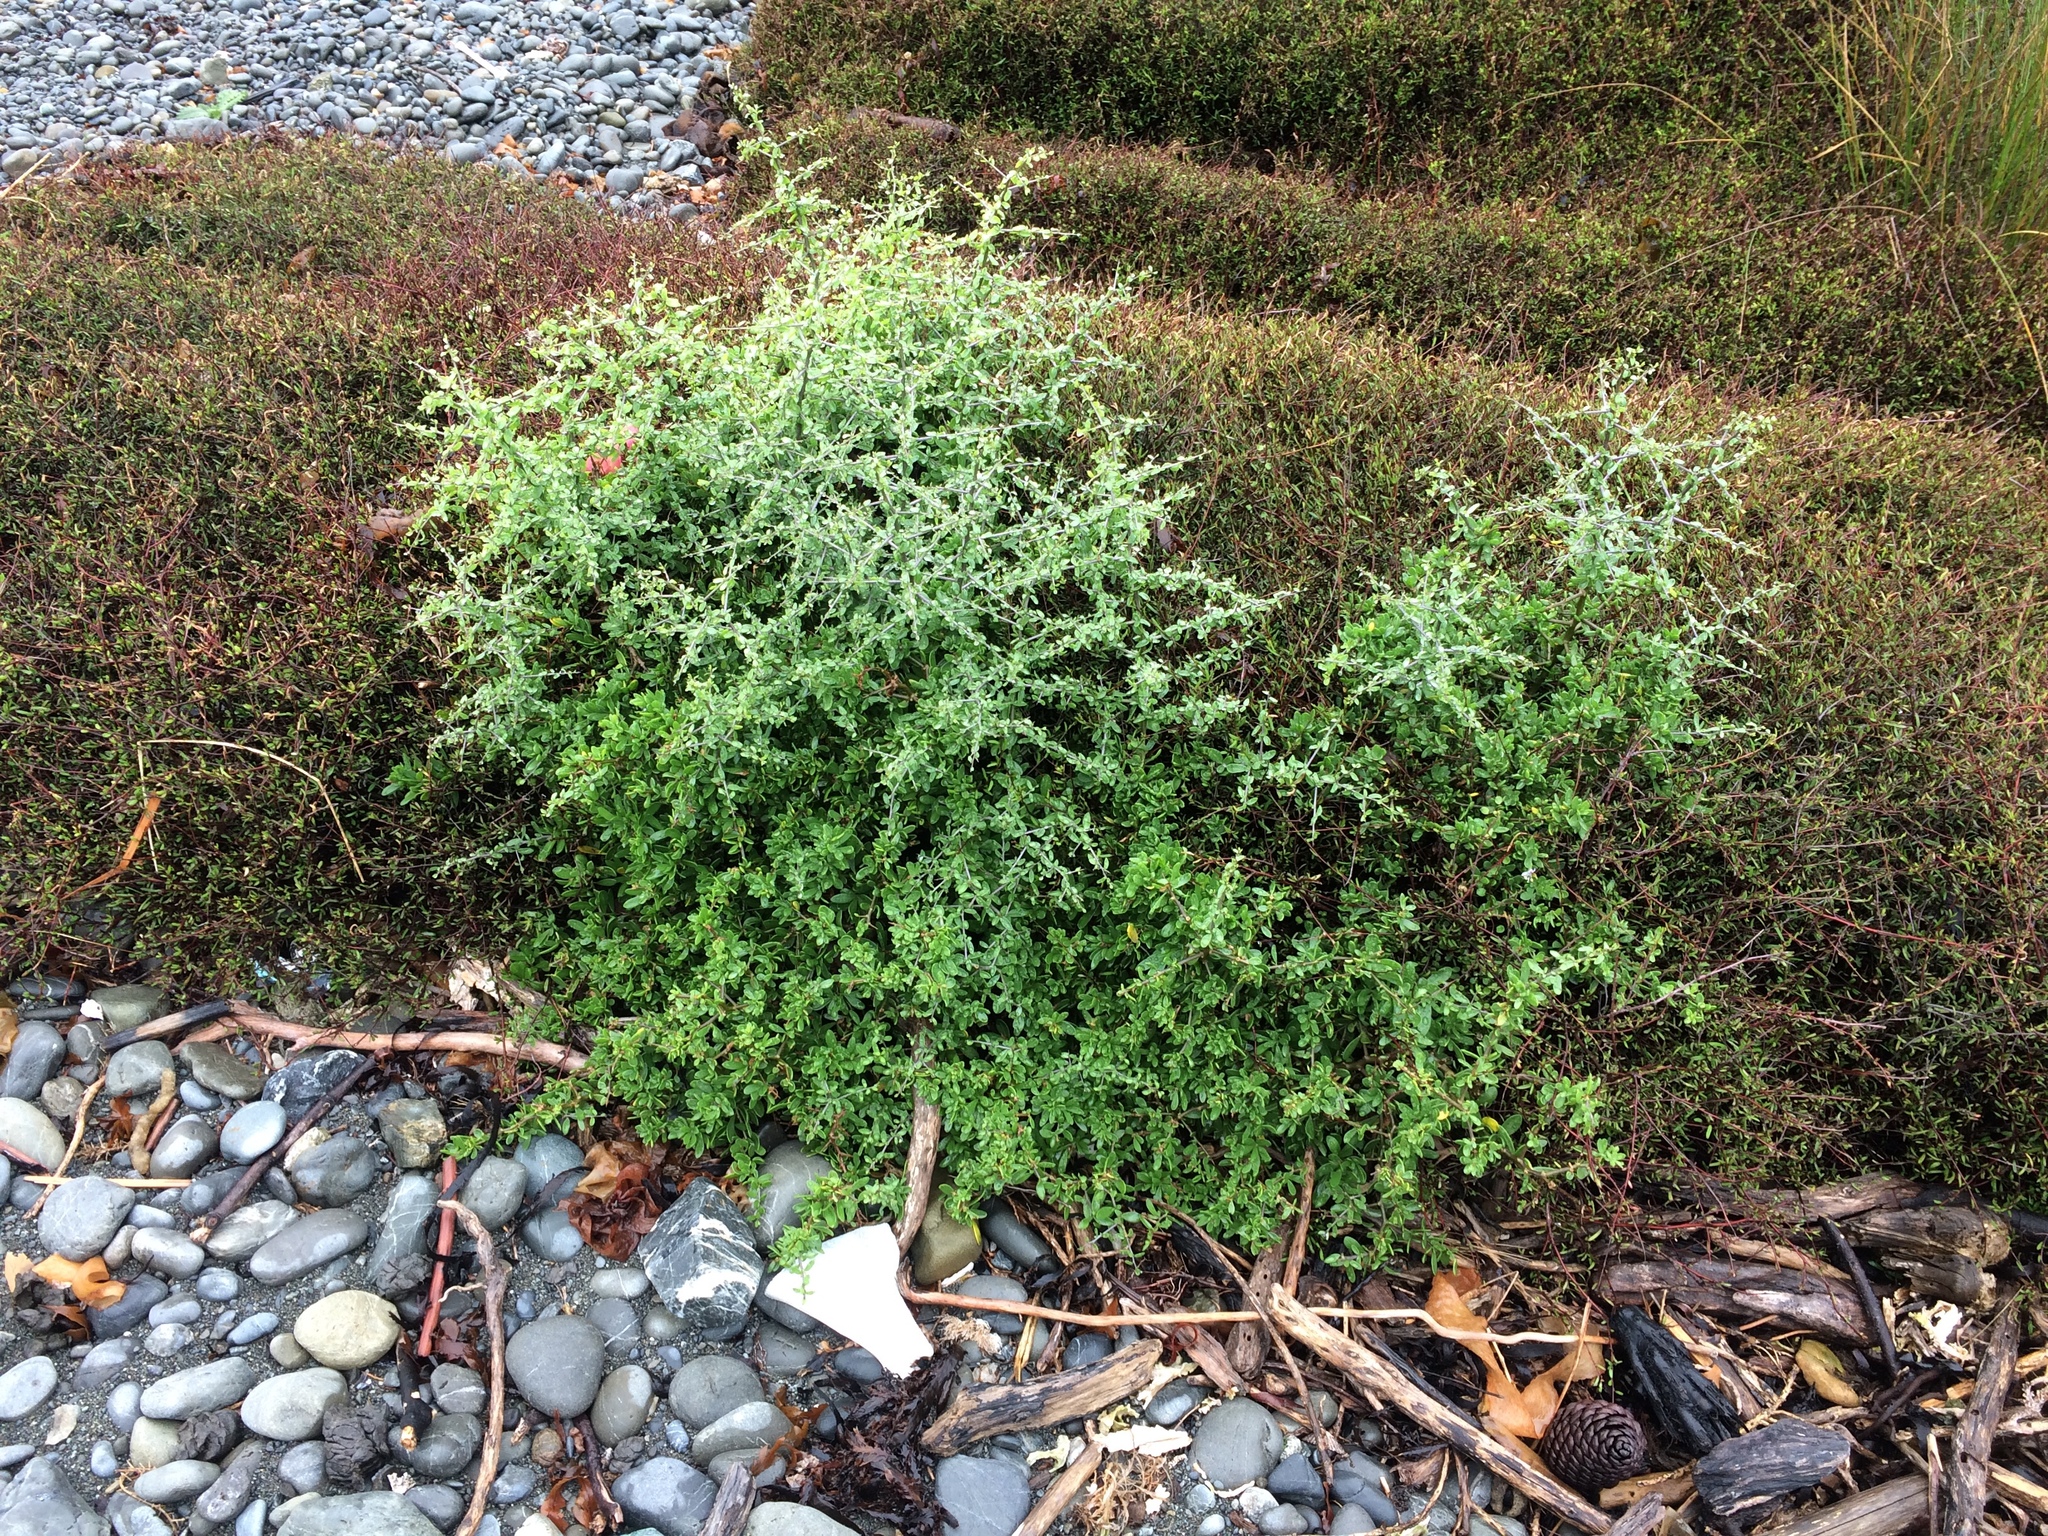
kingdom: Plantae
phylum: Tracheophyta
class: Magnoliopsida
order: Solanales
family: Solanaceae
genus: Lycium
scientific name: Lycium ferocissimum
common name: African boxthorn
